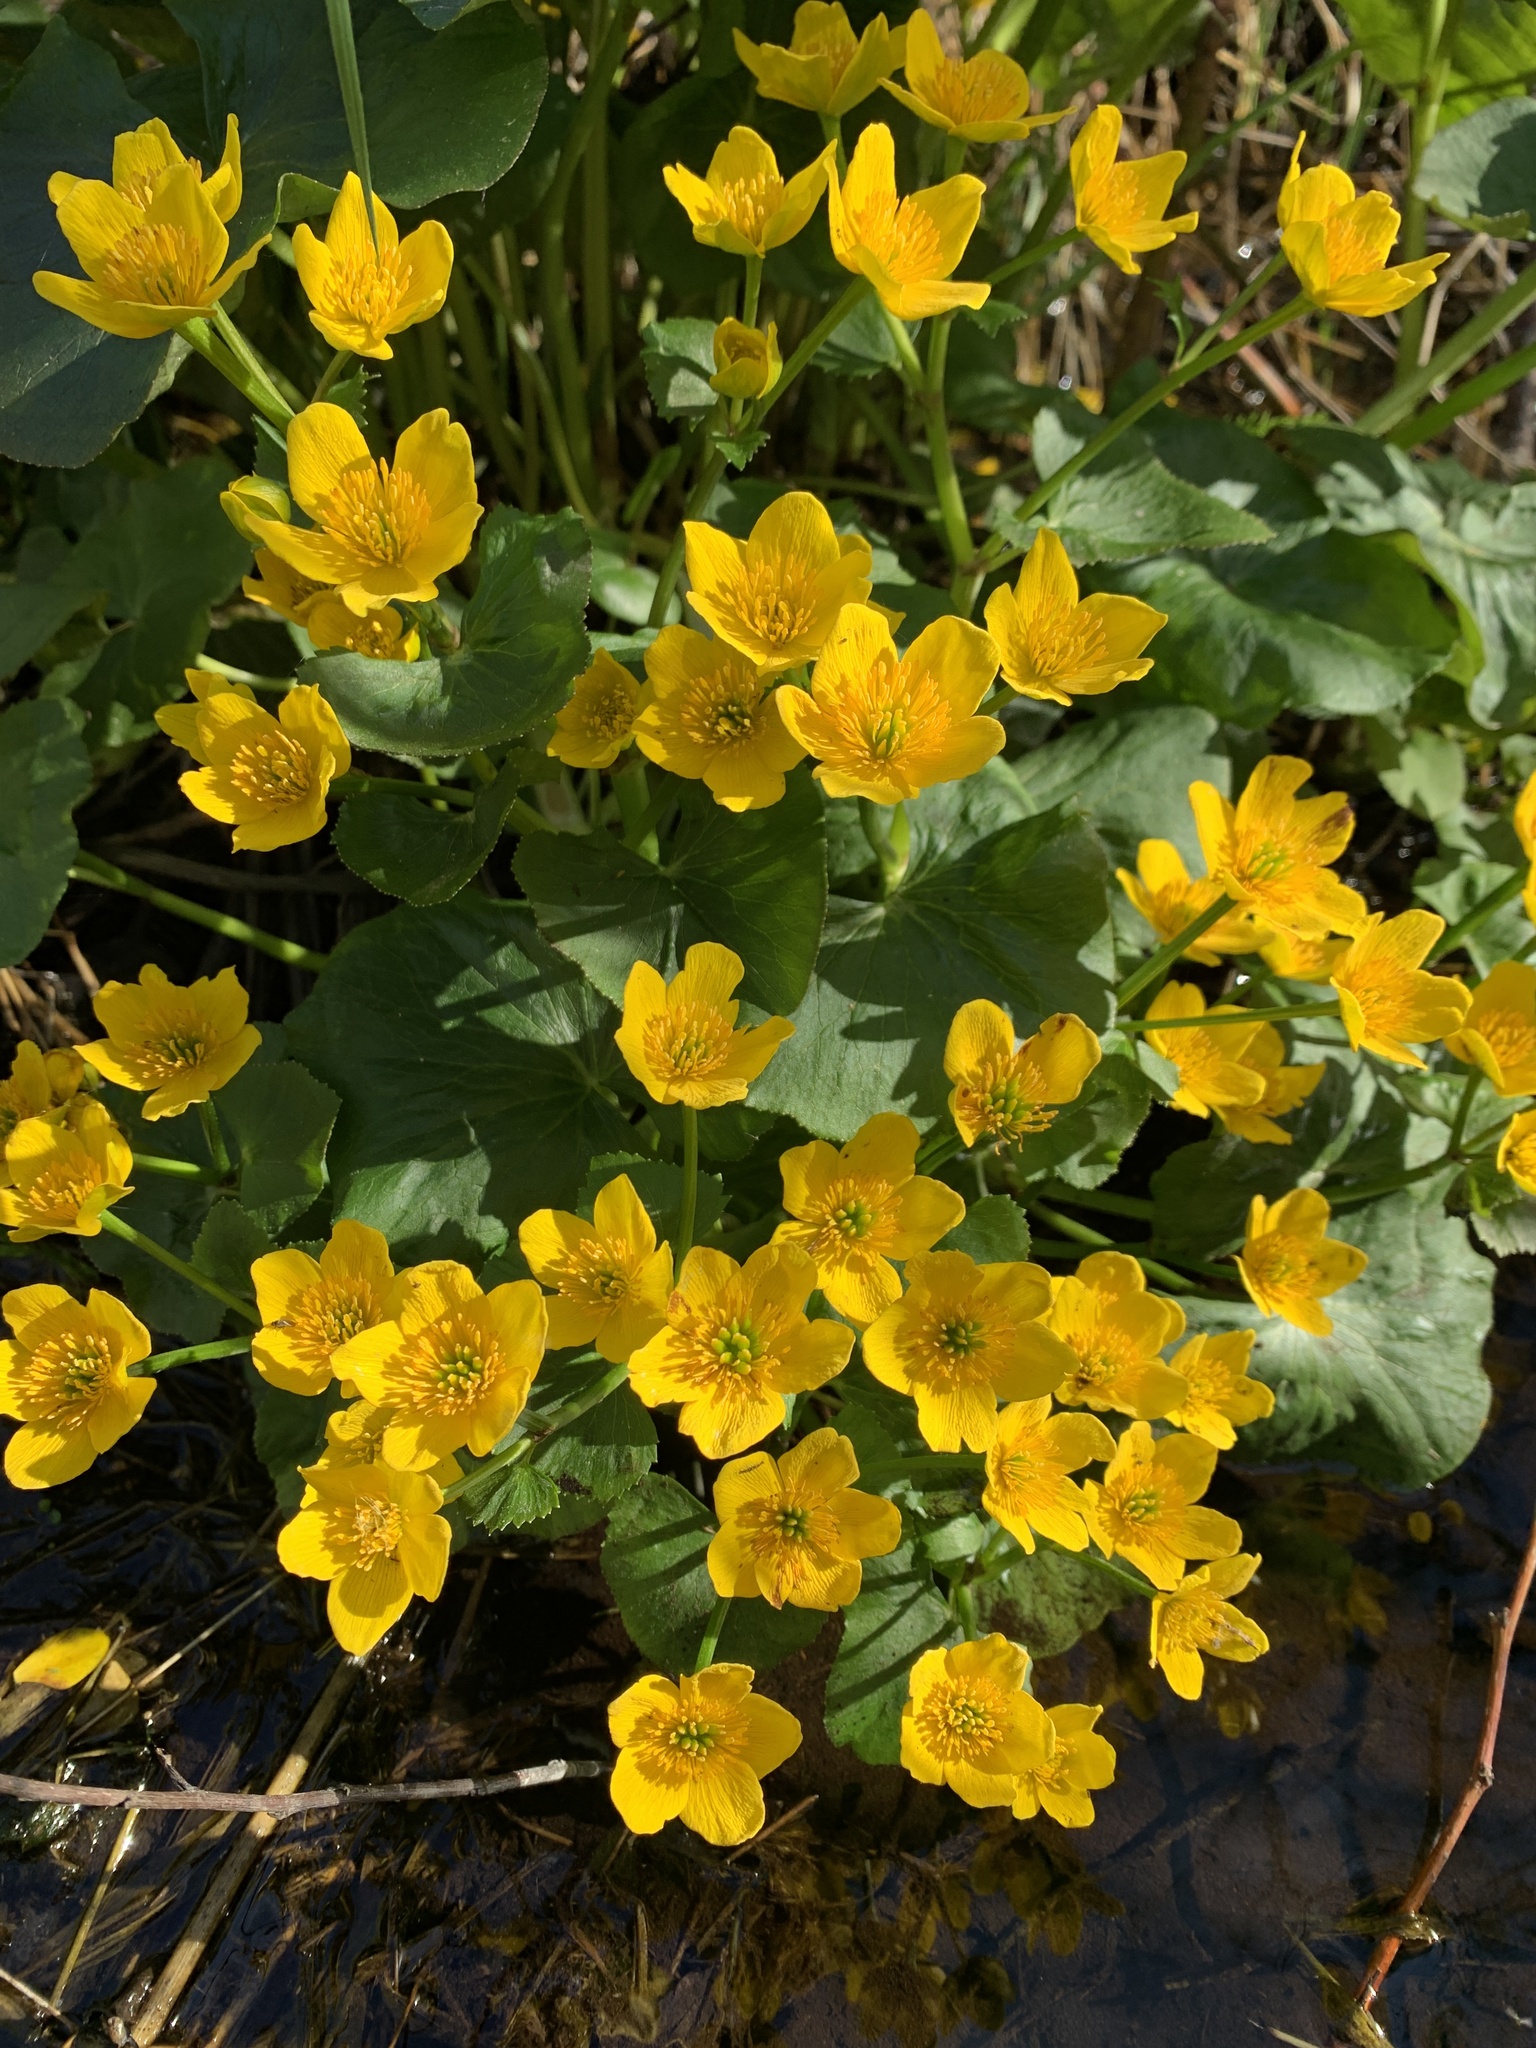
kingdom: Plantae
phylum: Tracheophyta
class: Magnoliopsida
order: Ranunculales
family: Ranunculaceae
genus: Caltha
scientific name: Caltha palustris
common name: Marsh marigold
